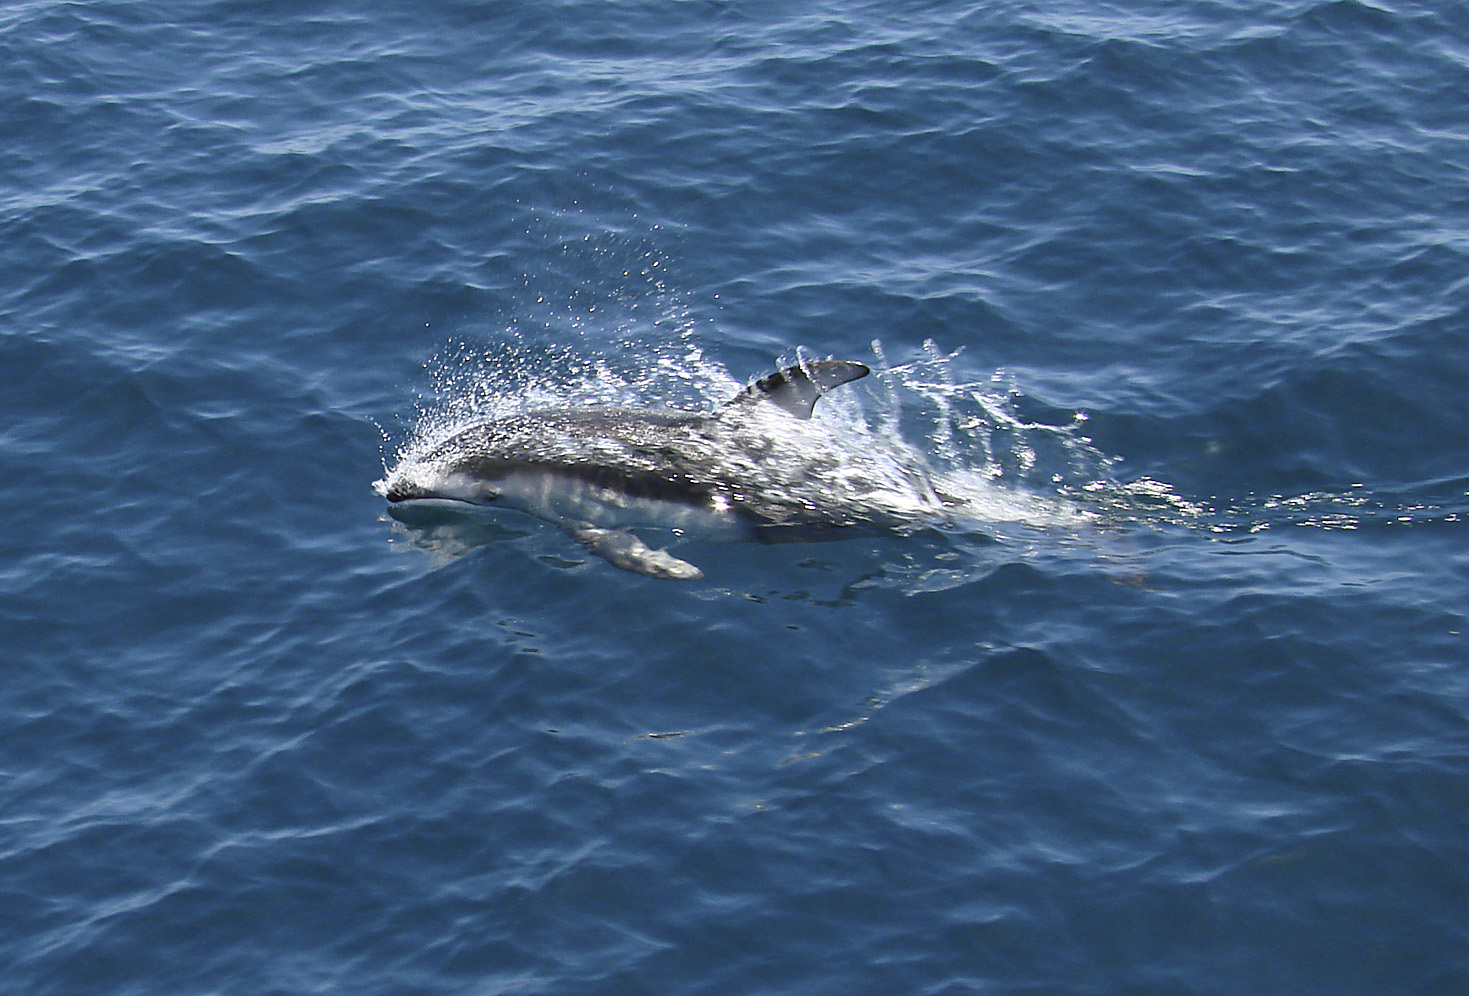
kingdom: Animalia
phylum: Chordata
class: Mammalia
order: Cetacea
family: Delphinidae
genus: Lagenorhynchus
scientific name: Lagenorhynchus obliquidens
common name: Pacific white-sided dolphin
